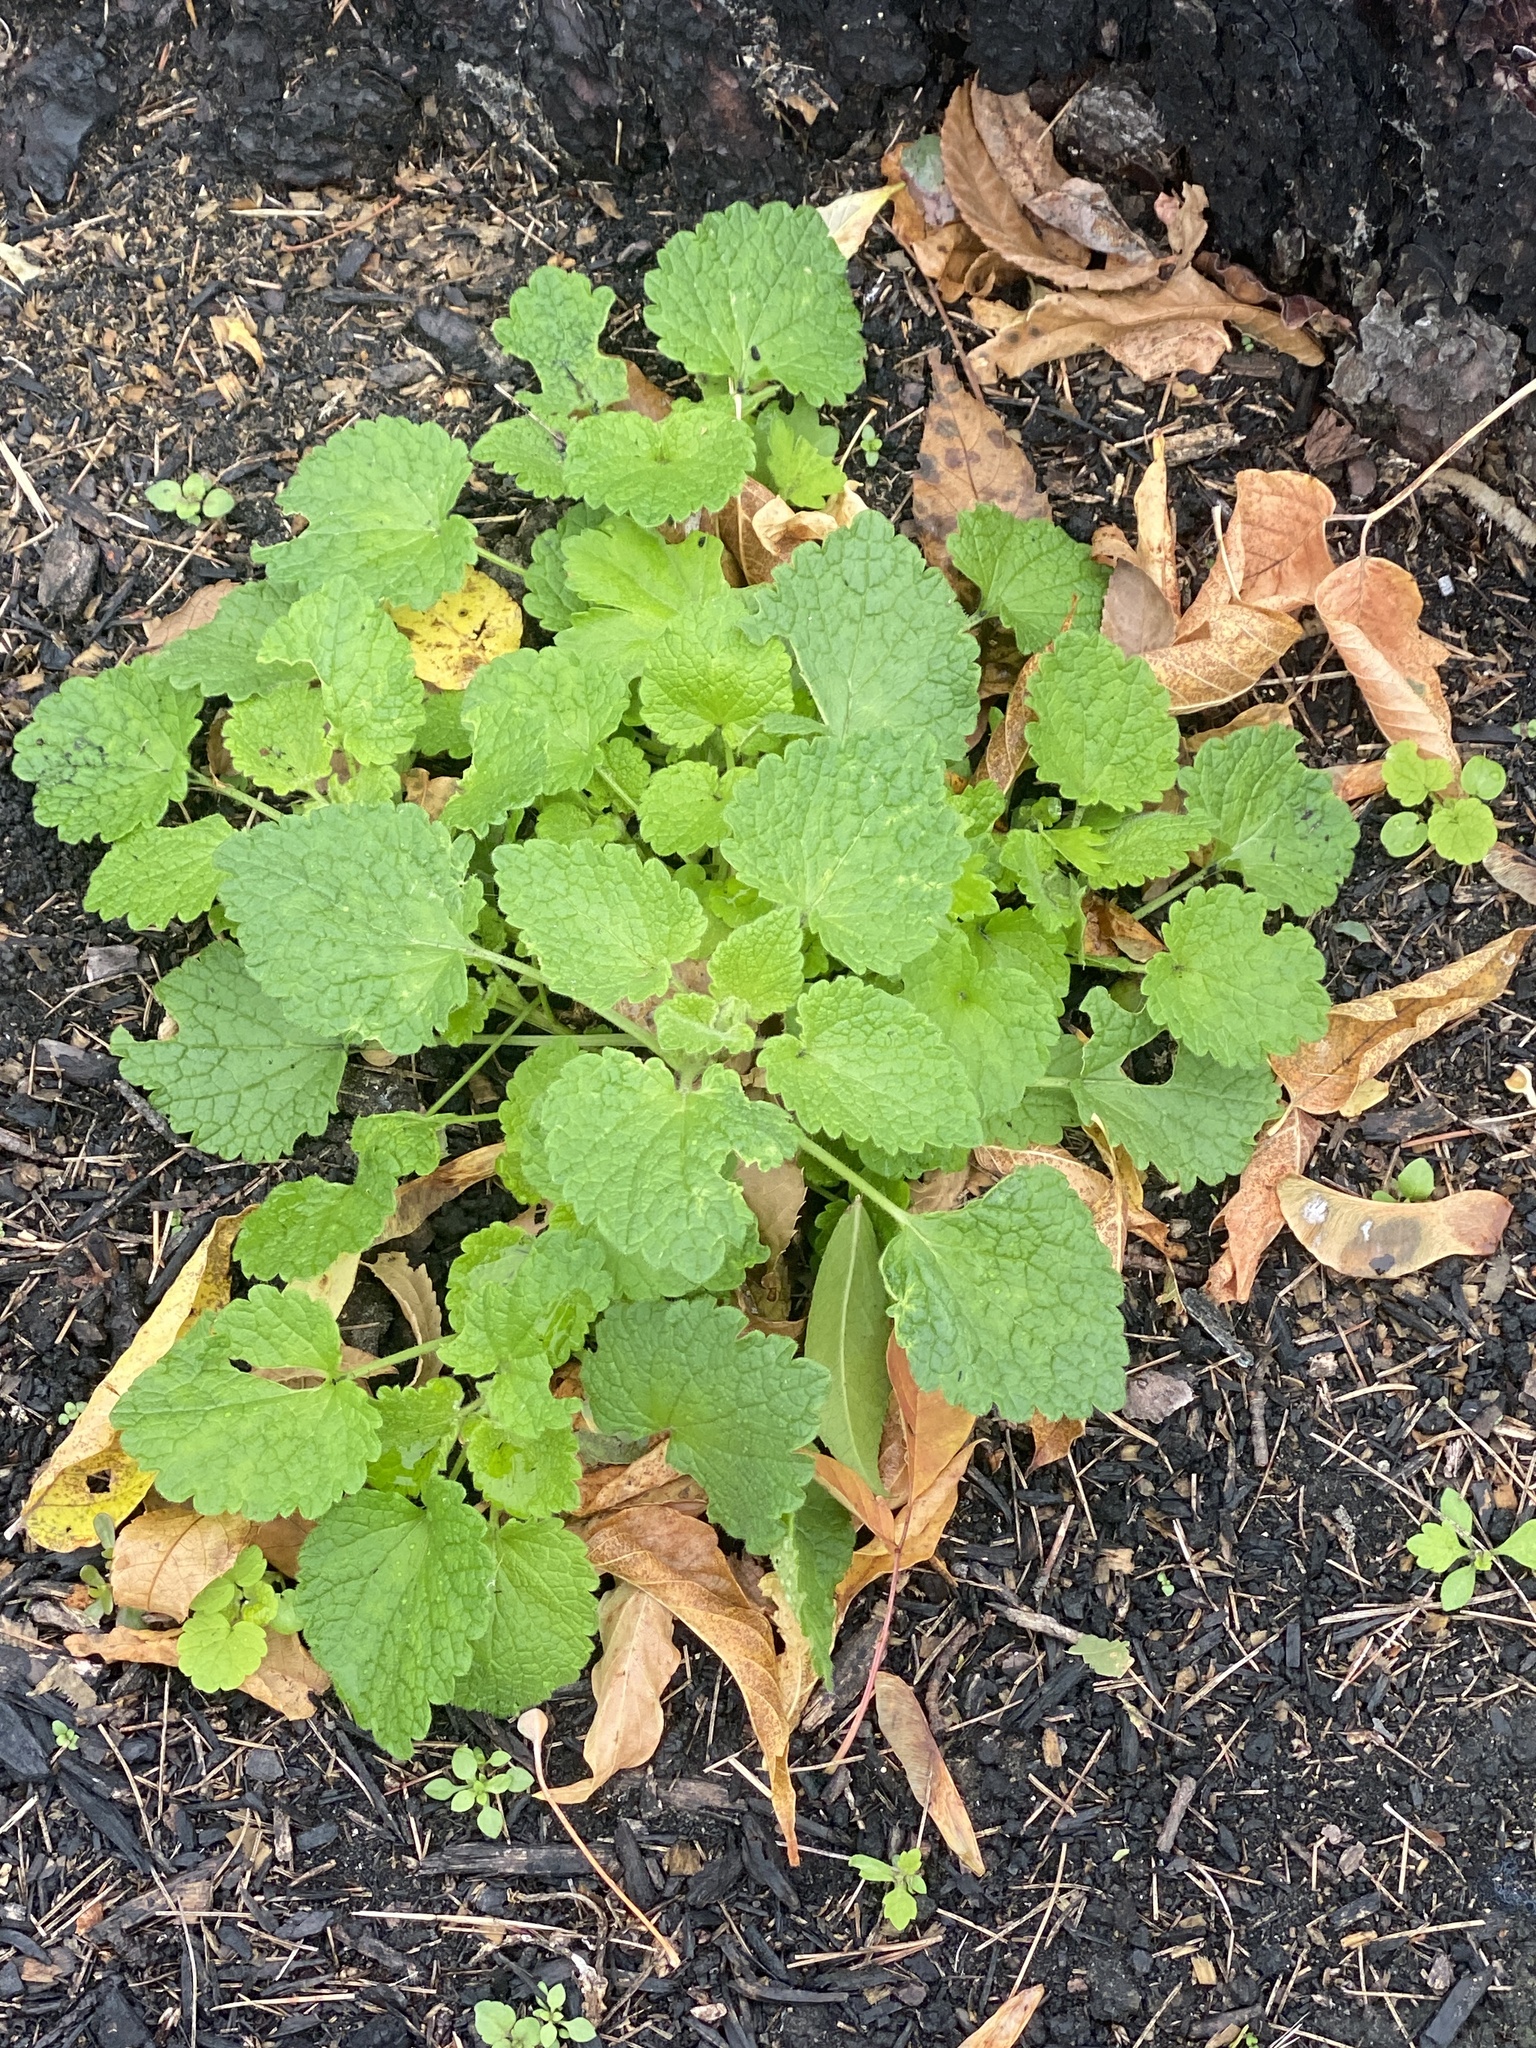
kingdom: Plantae
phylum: Tracheophyta
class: Magnoliopsida
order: Lamiales
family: Lamiaceae
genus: Lamium
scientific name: Lamium purpureum
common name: Red dead-nettle
